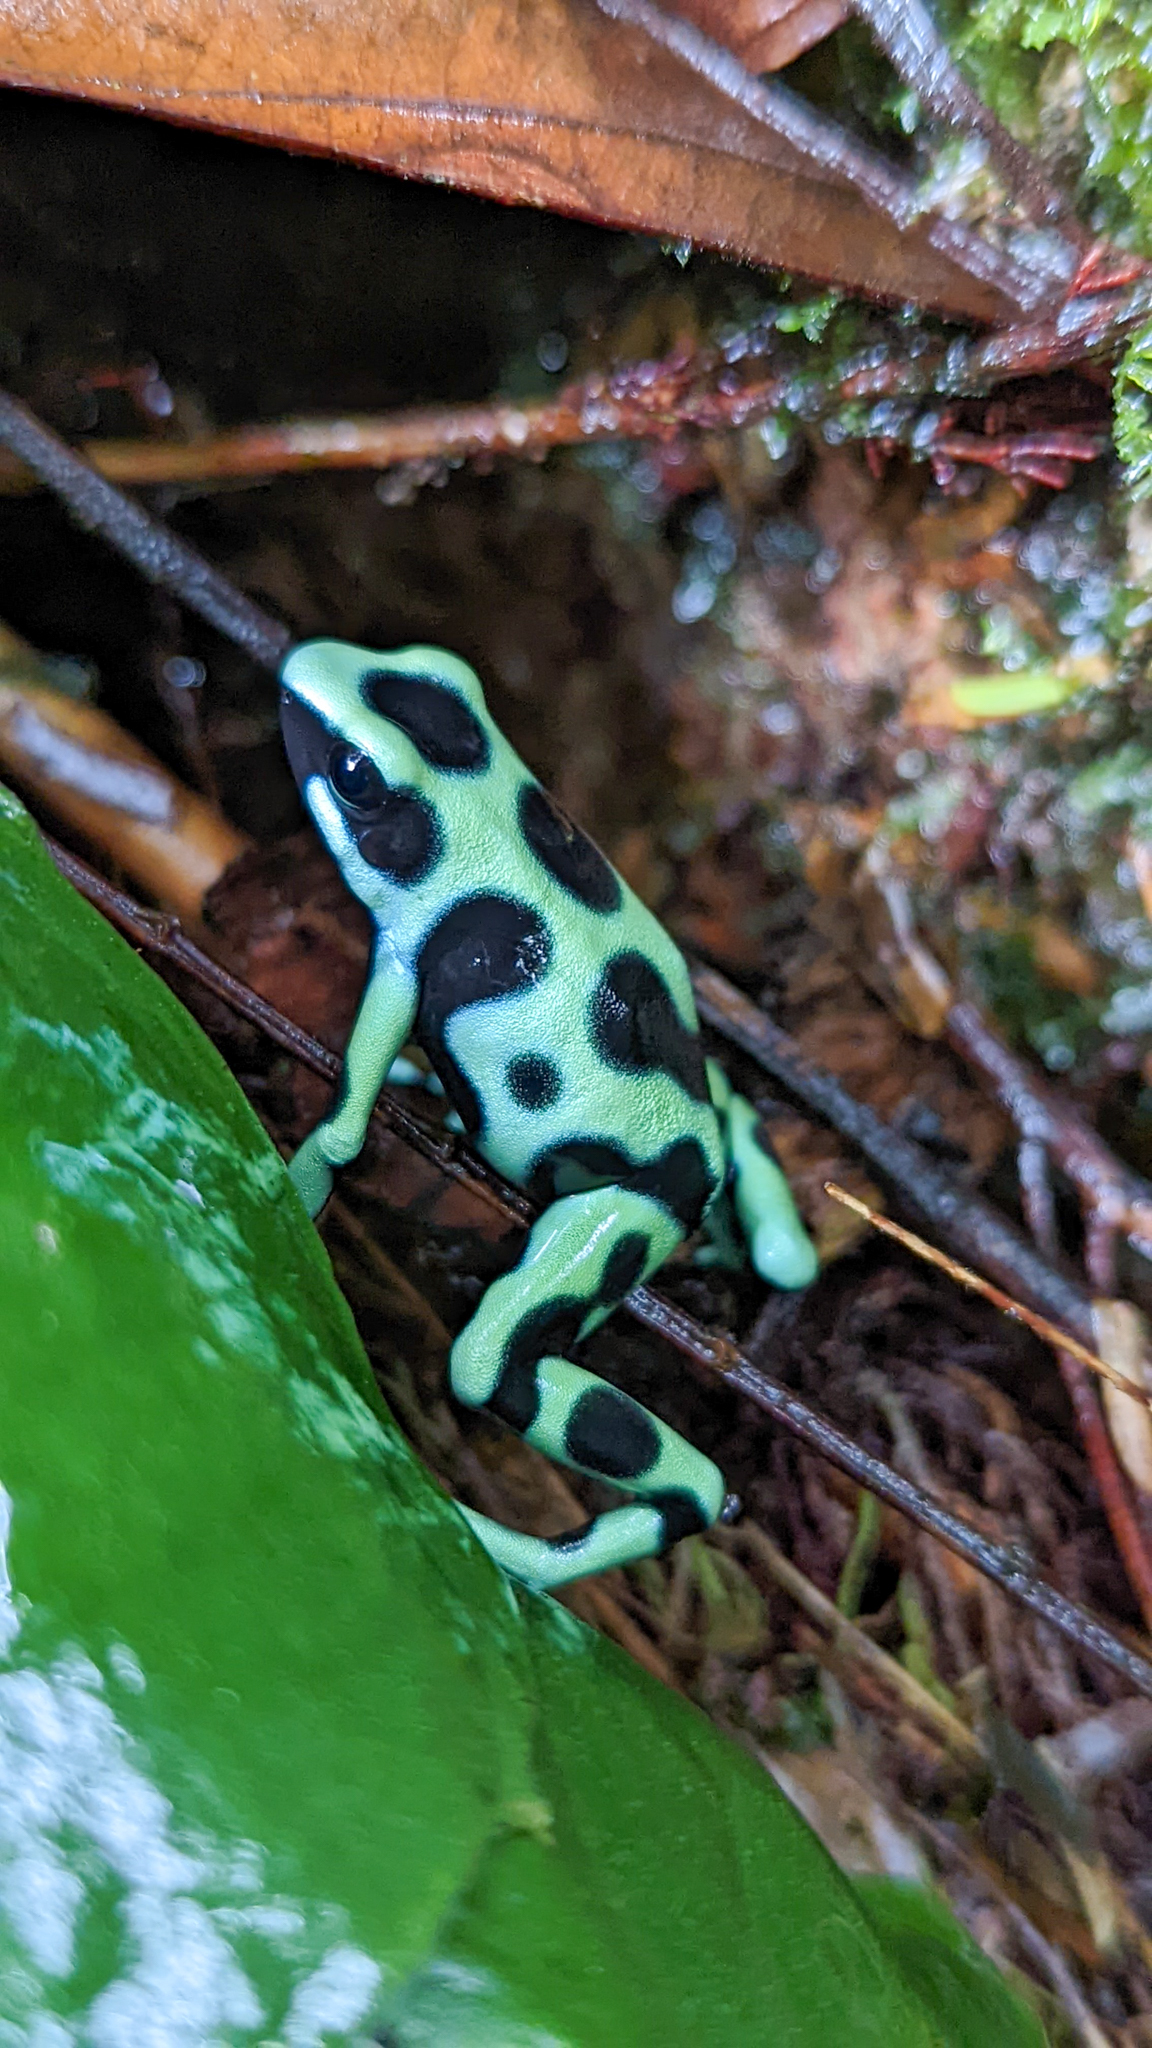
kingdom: Animalia
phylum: Chordata
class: Amphibia
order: Anura
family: Dendrobatidae
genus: Dendrobates
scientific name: Dendrobates auratus
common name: Green and black poison dart frog
